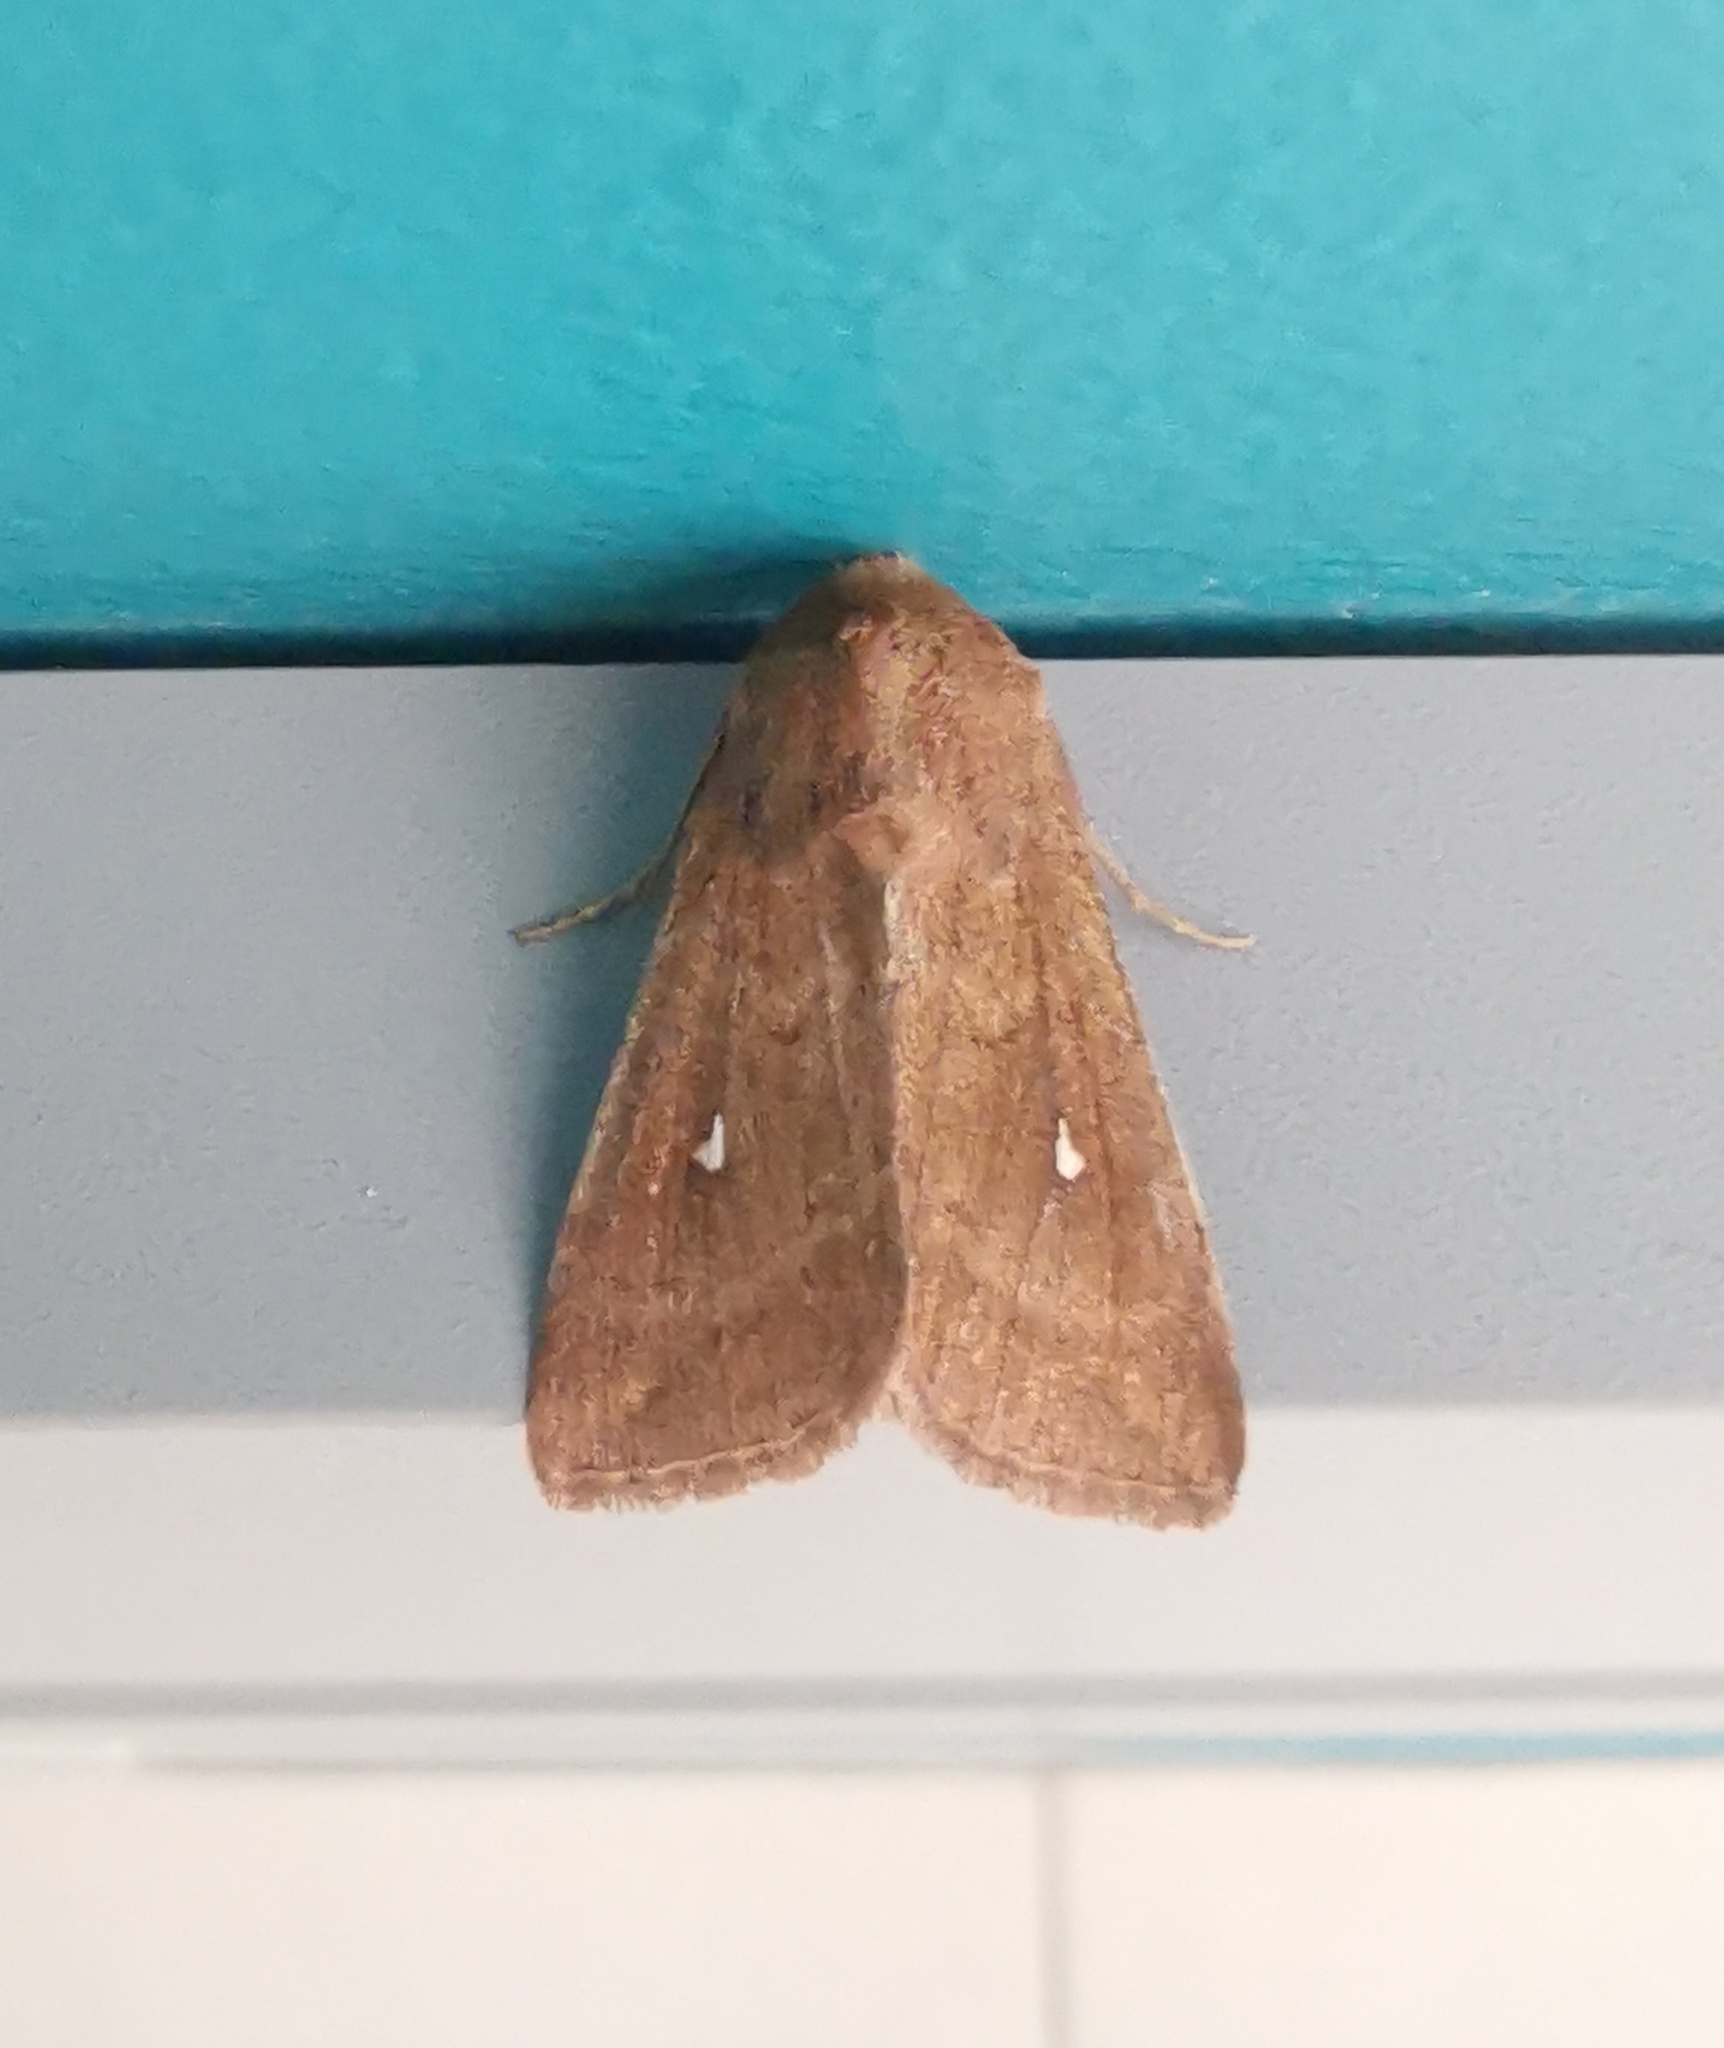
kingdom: Animalia
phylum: Arthropoda
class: Insecta
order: Lepidoptera
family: Noctuidae
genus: Mythimna
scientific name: Mythimna albipuncta
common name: White-point
